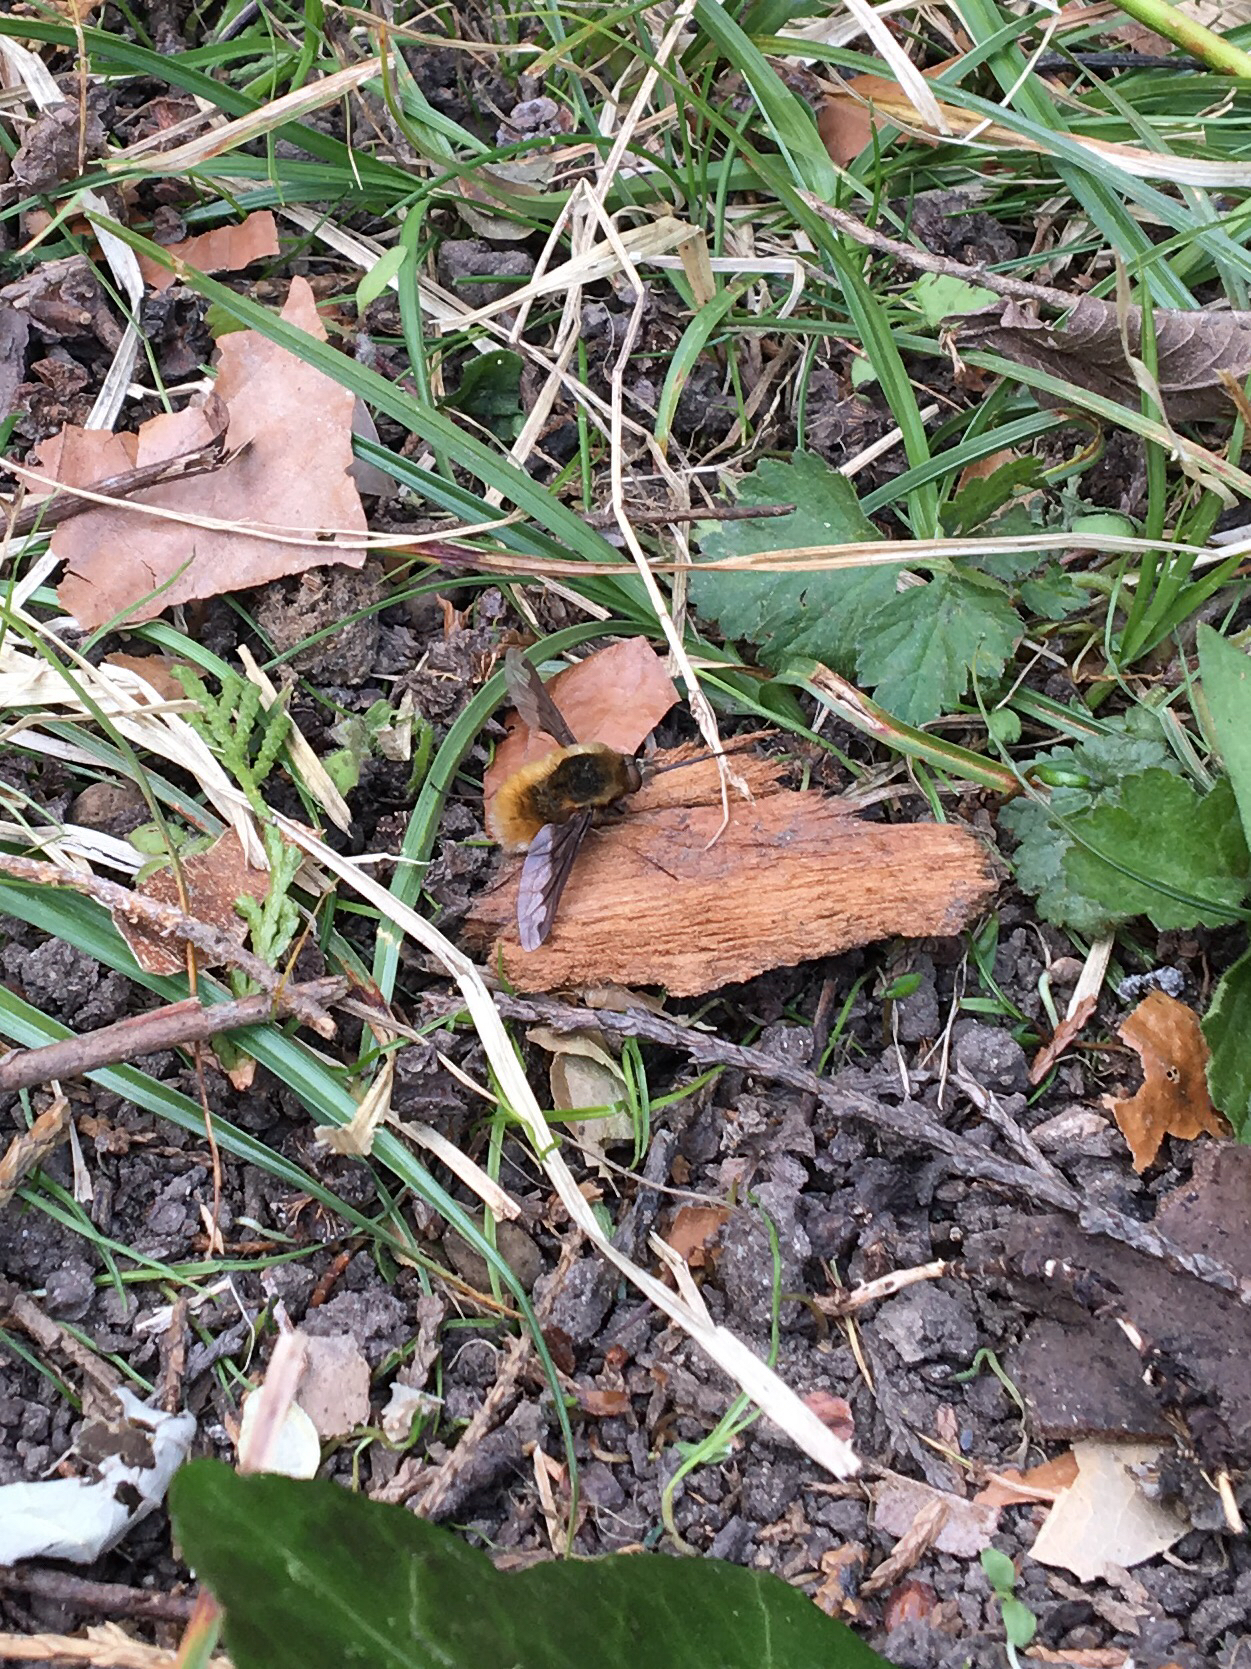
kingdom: Animalia
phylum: Arthropoda
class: Insecta
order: Diptera
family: Bombyliidae
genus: Bombylius
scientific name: Bombylius major
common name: Bee fly
